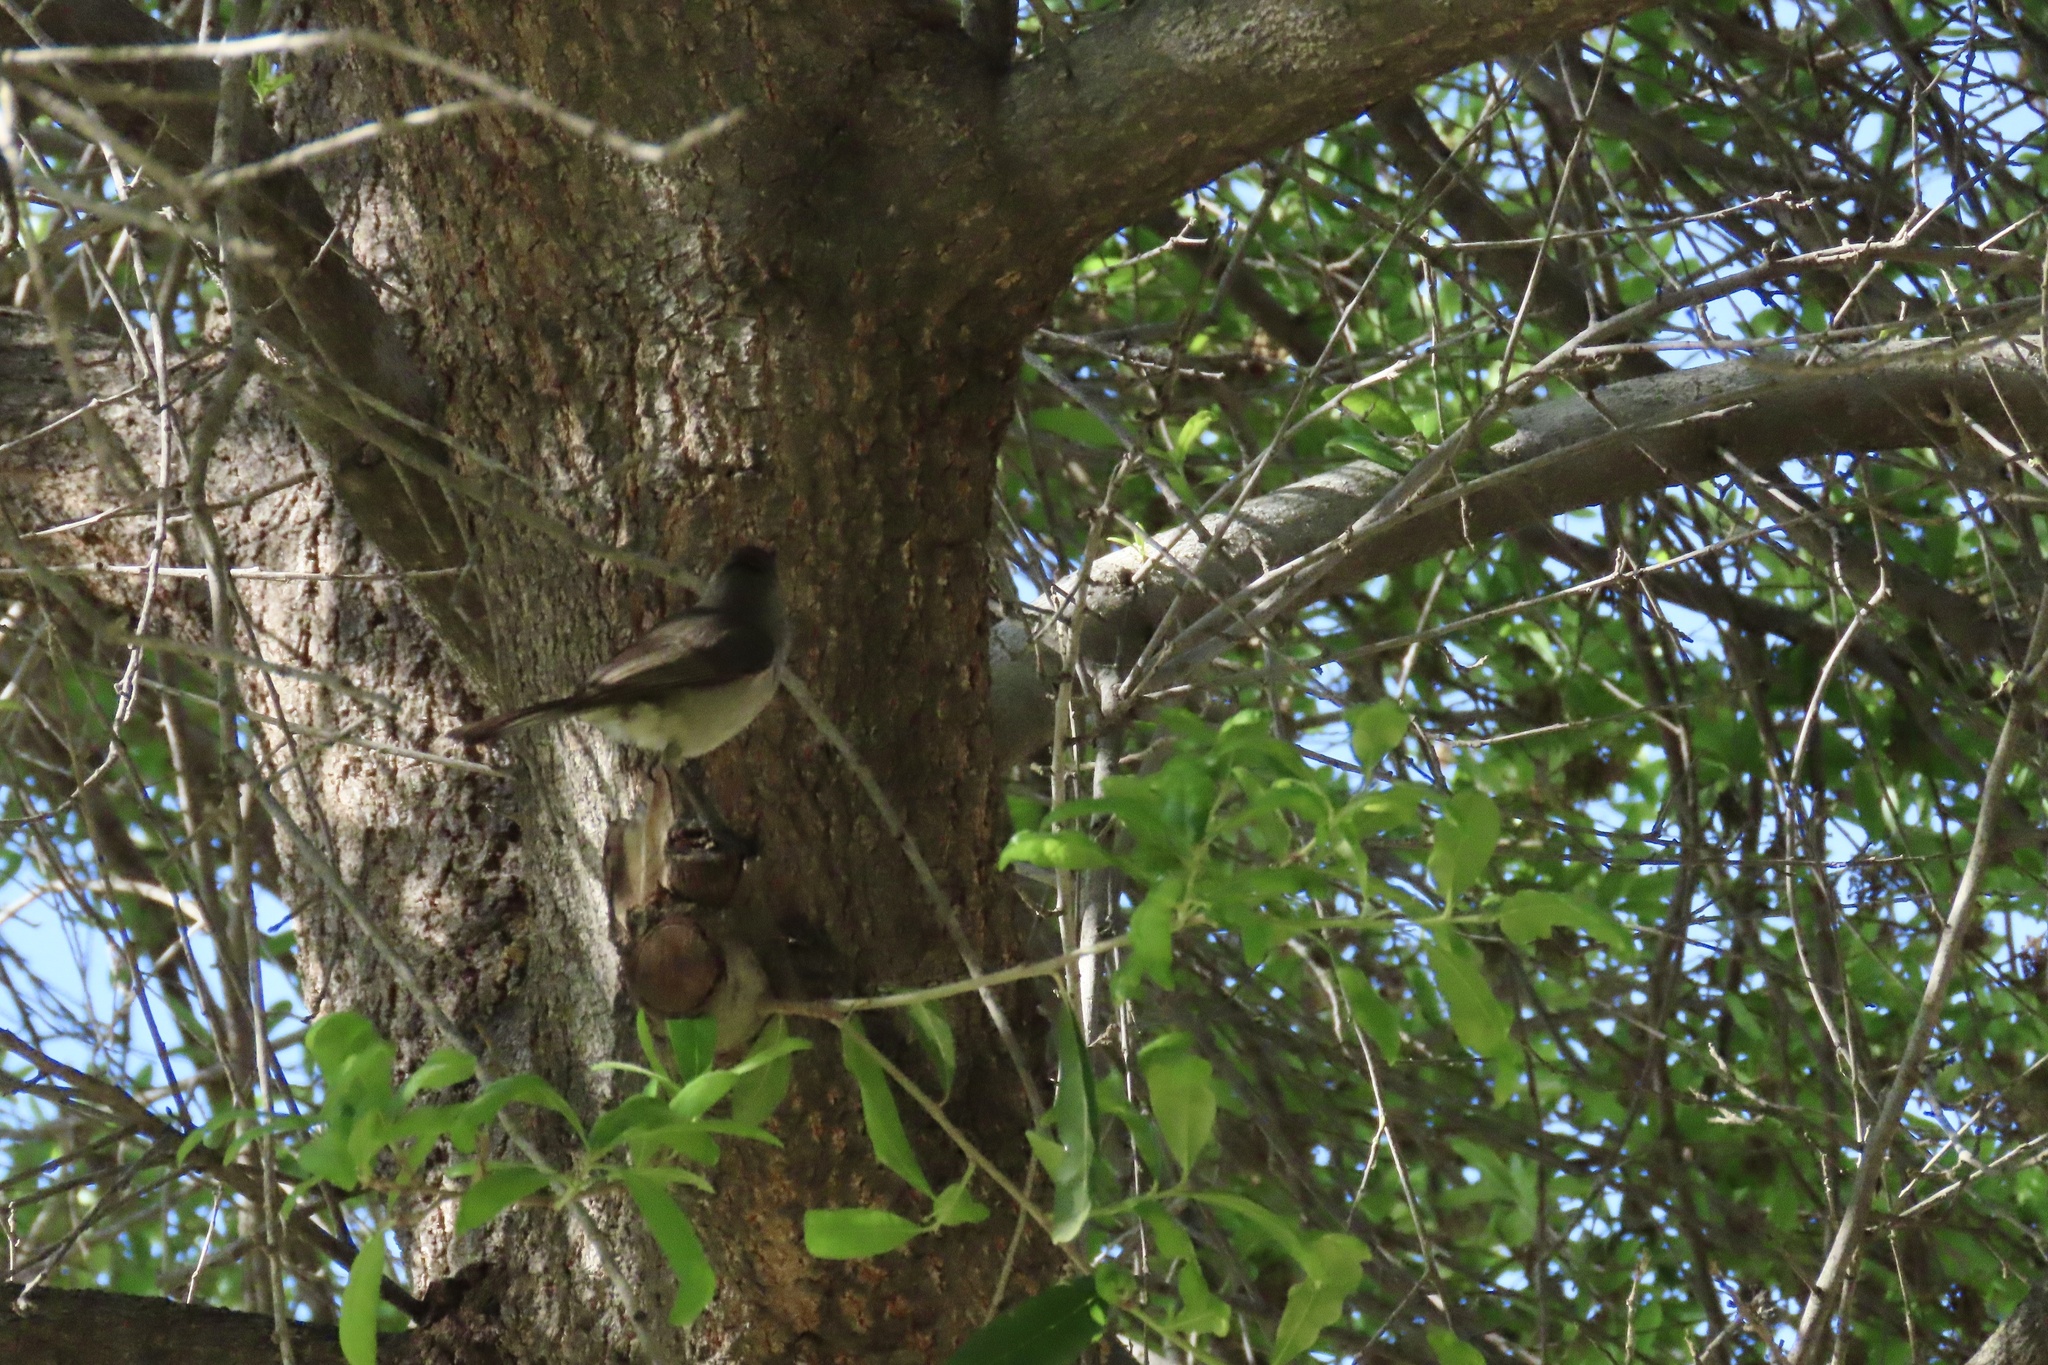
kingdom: Animalia
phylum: Chordata
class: Aves
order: Passeriformes
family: Paridae
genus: Baeolophus
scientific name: Baeolophus inornatus
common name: Oak titmouse
